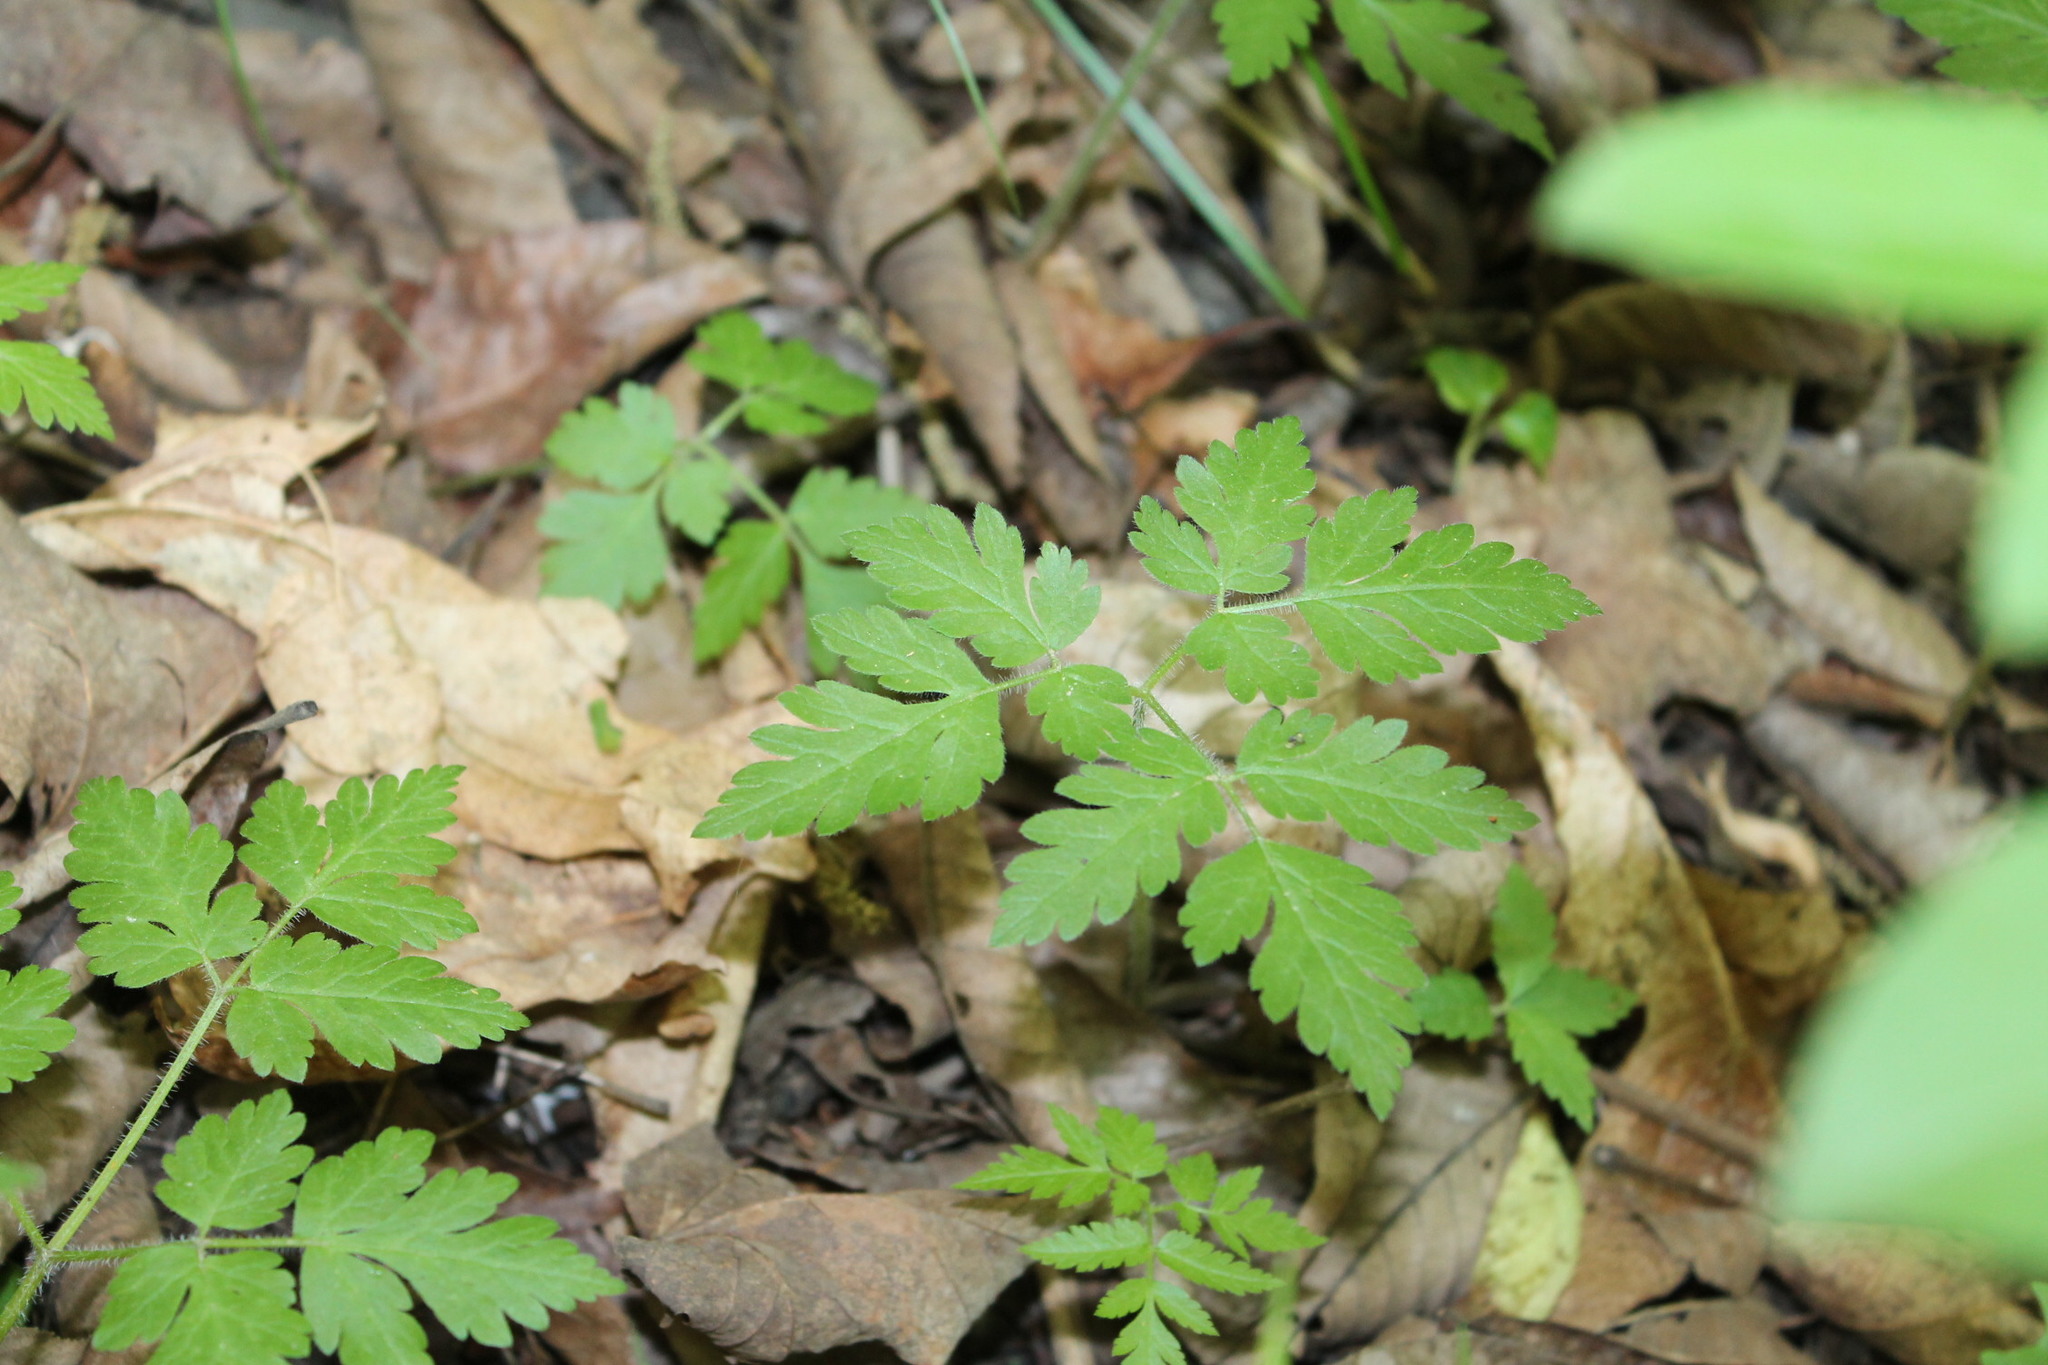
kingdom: Plantae
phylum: Tracheophyta
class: Magnoliopsida
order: Apiales
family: Apiaceae
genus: Osmorhiza
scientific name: Osmorhiza claytonii
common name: Hairy sweet cicely
